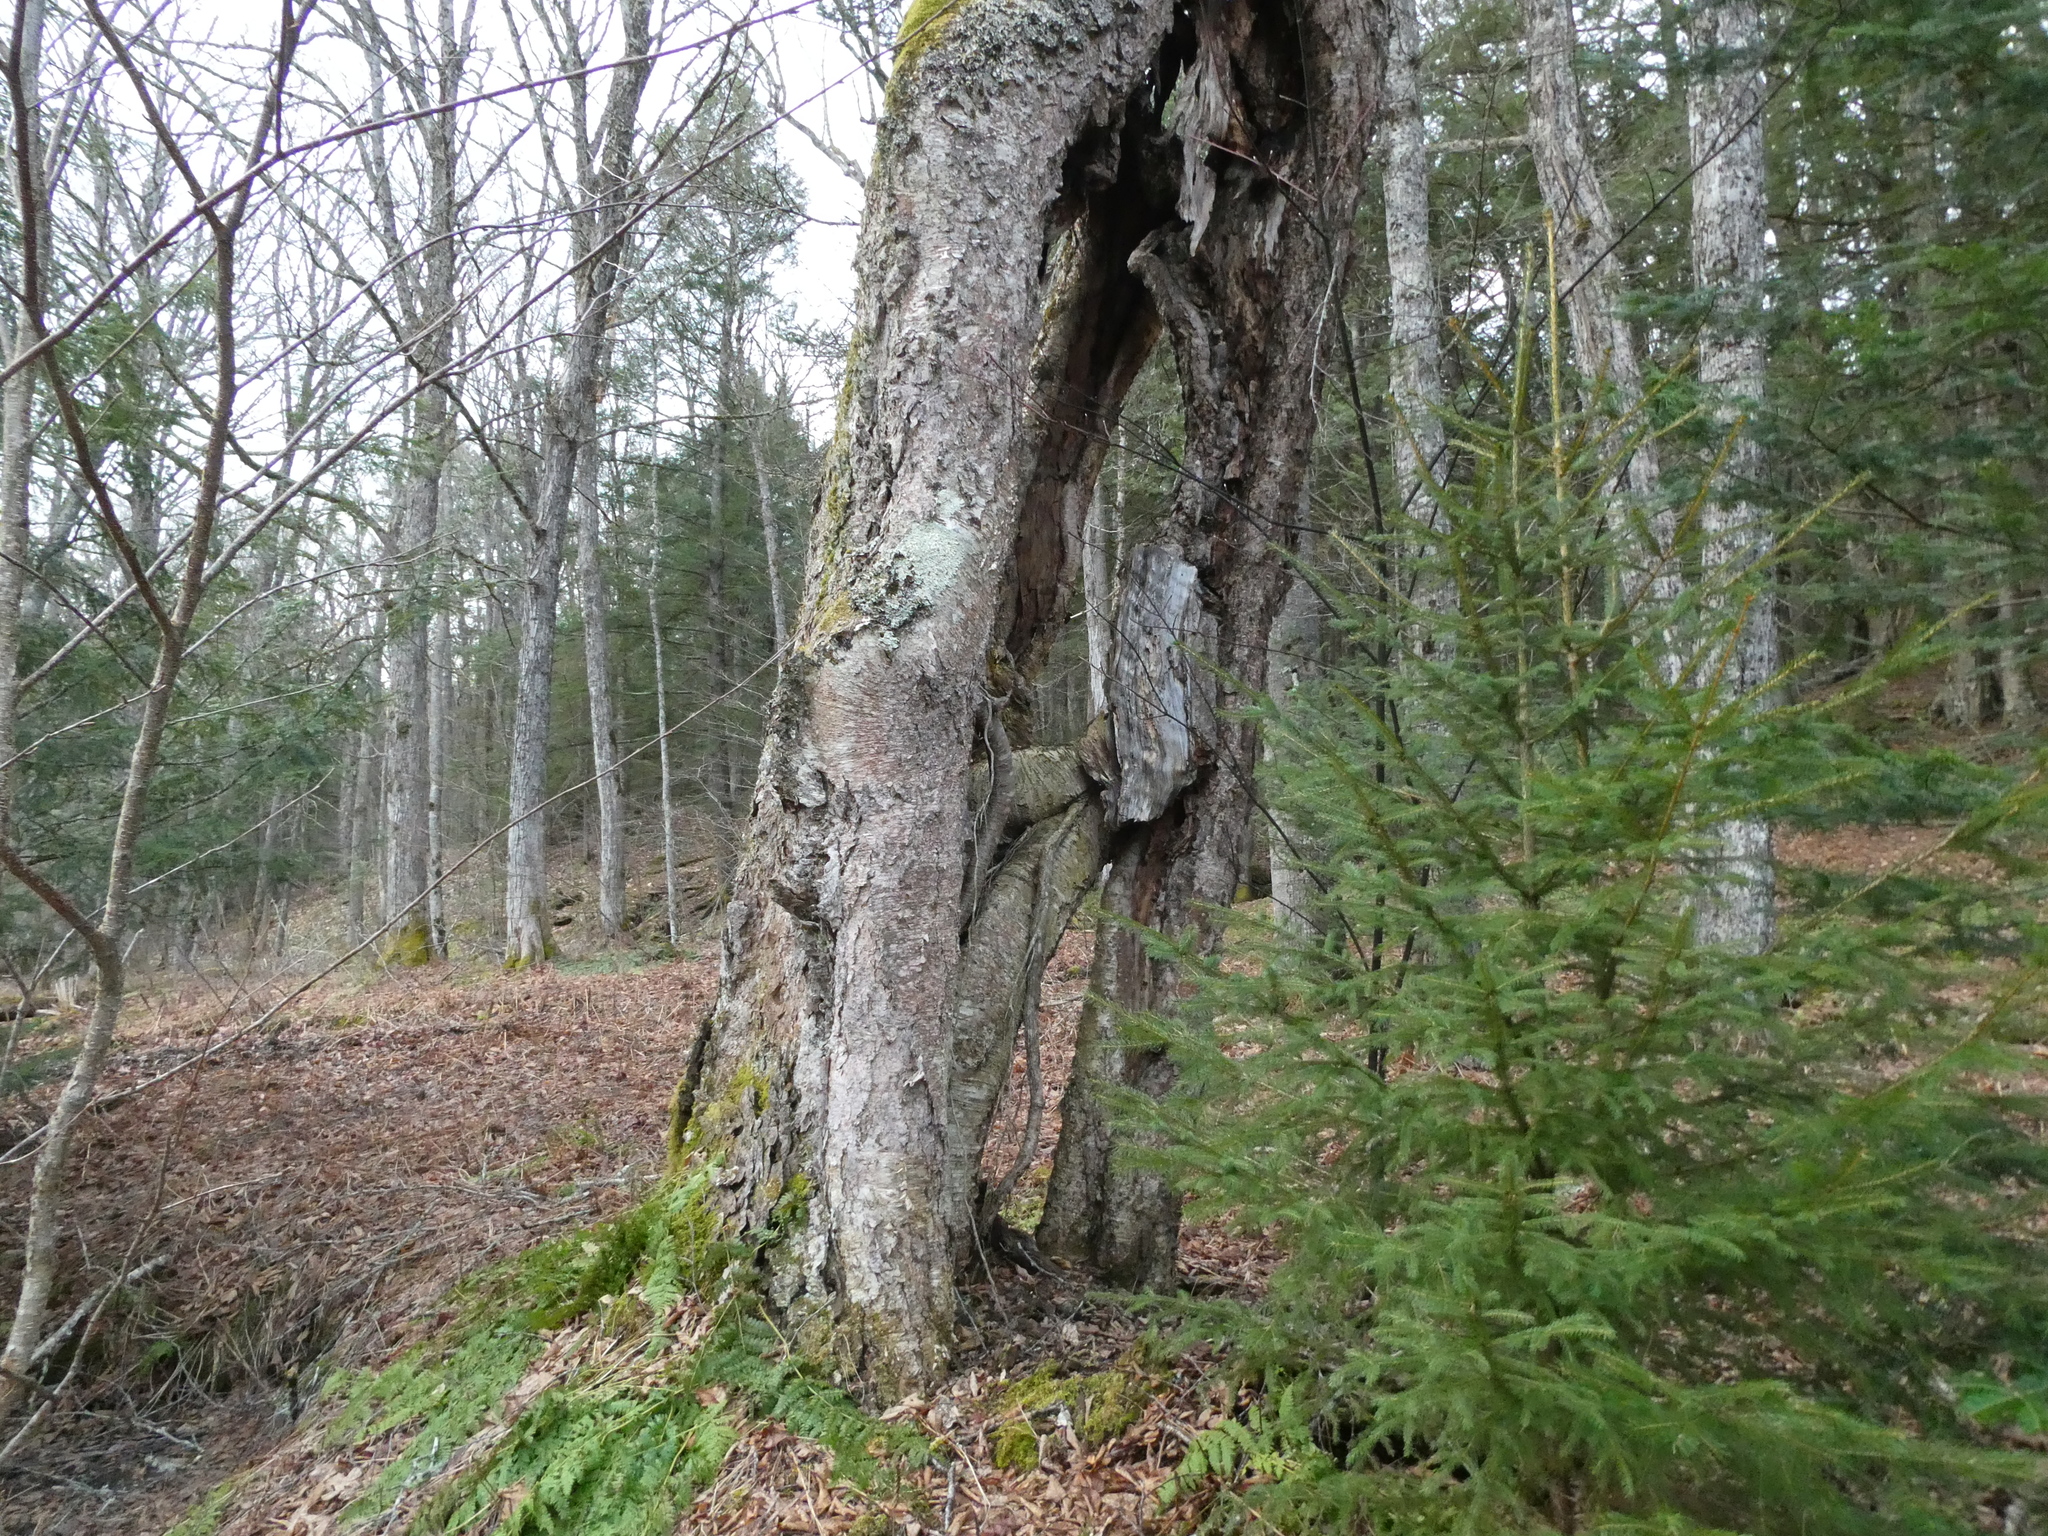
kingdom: Plantae
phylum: Tracheophyta
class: Magnoliopsida
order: Fagales
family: Betulaceae
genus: Betula
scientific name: Betula alleghaniensis
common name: Yellow birch
